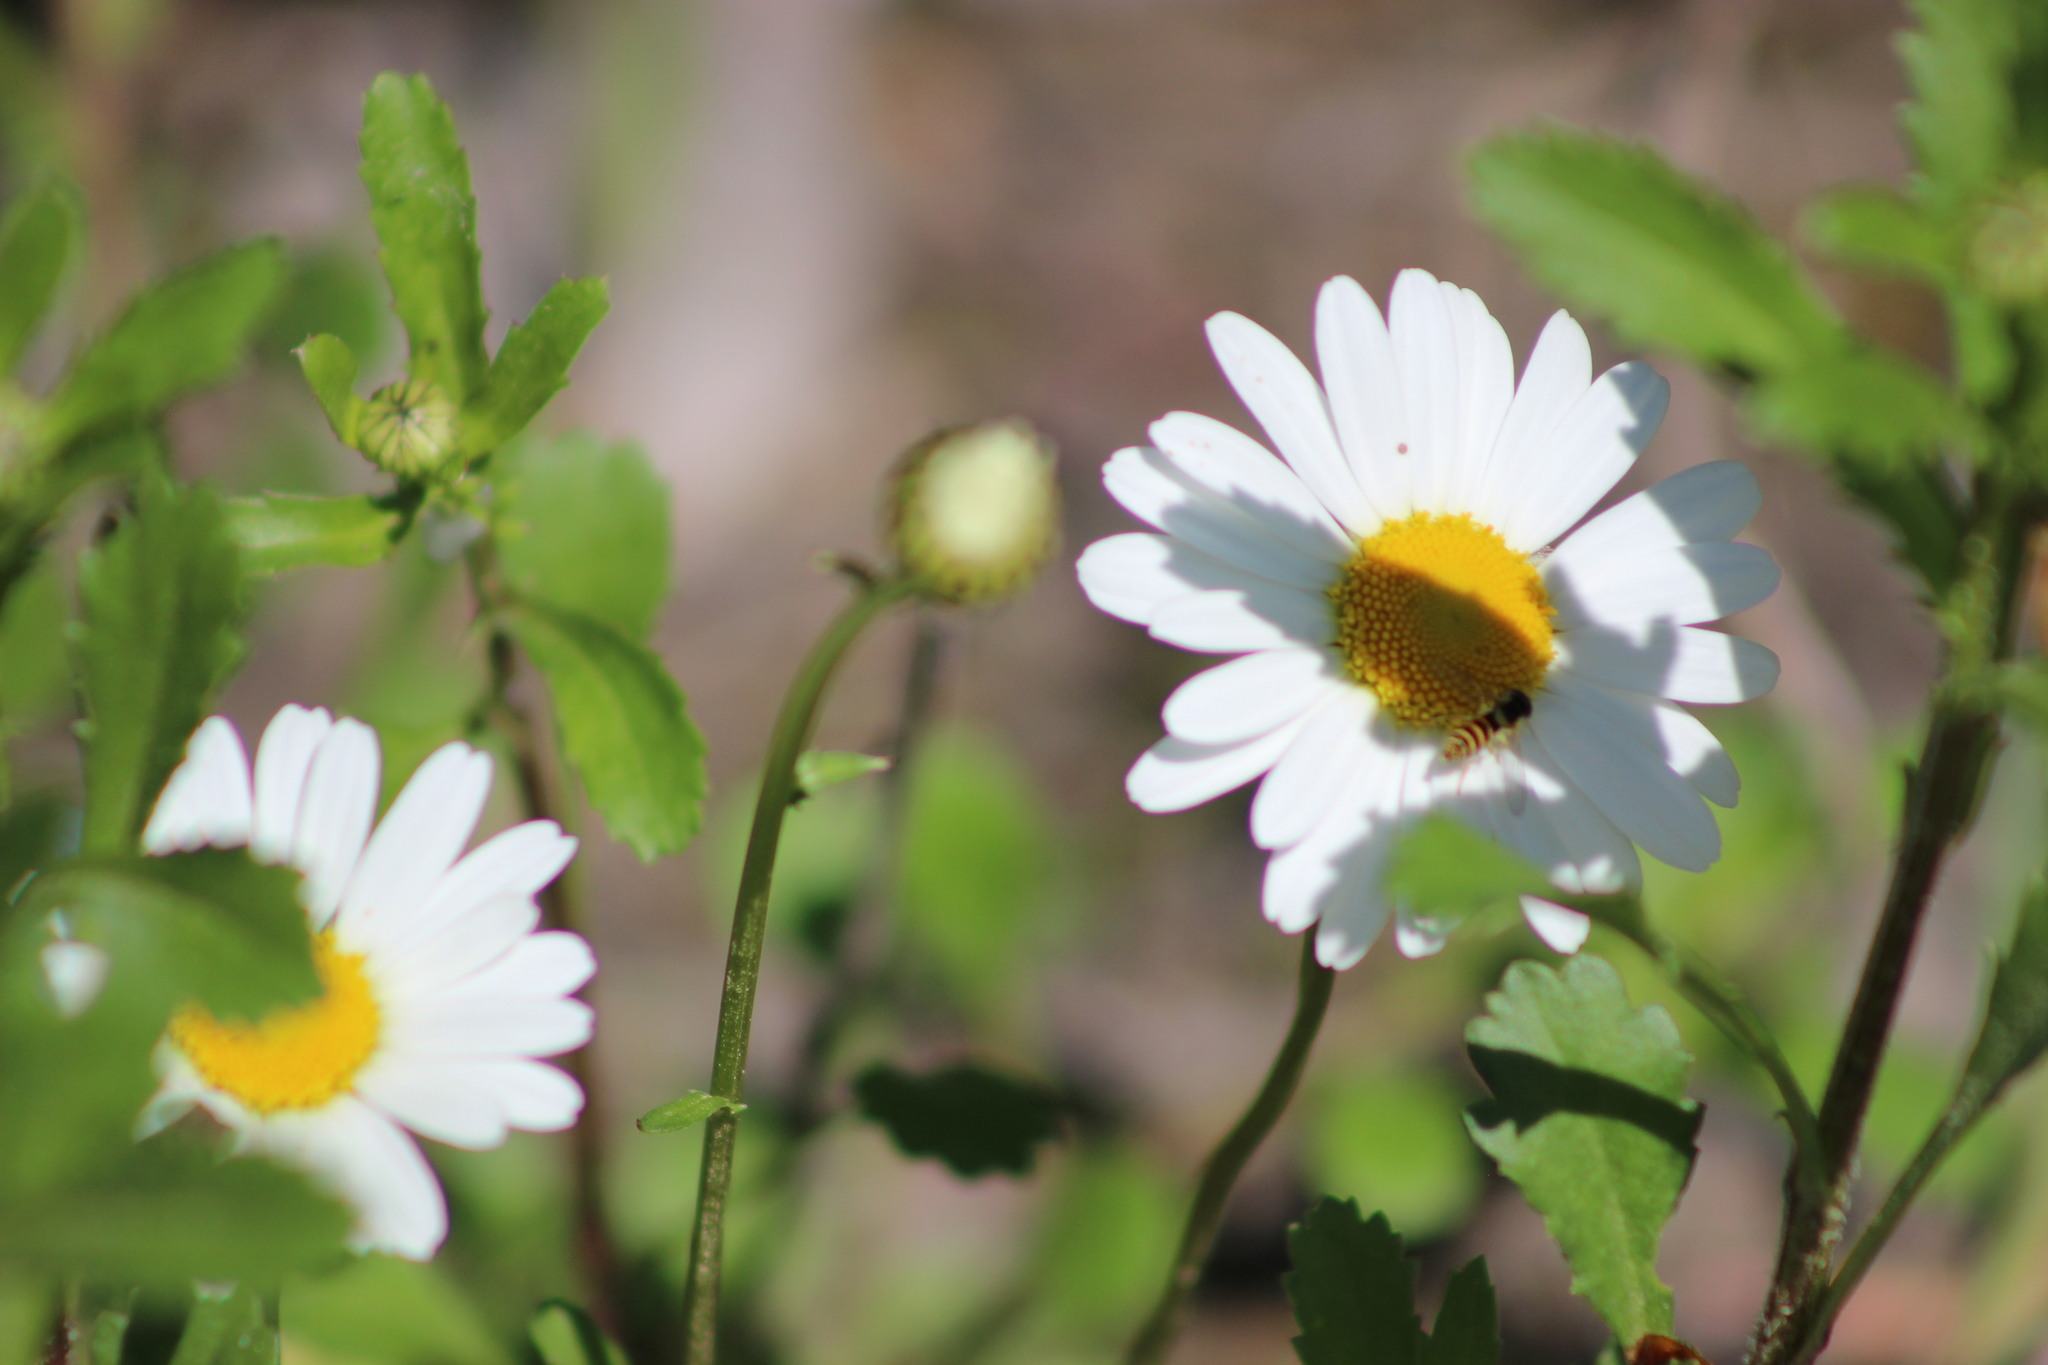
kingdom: Plantae
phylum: Tracheophyta
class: Magnoliopsida
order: Asterales
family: Asteraceae
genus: Leucanthemum
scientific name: Leucanthemum ircutianum
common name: Daisy
